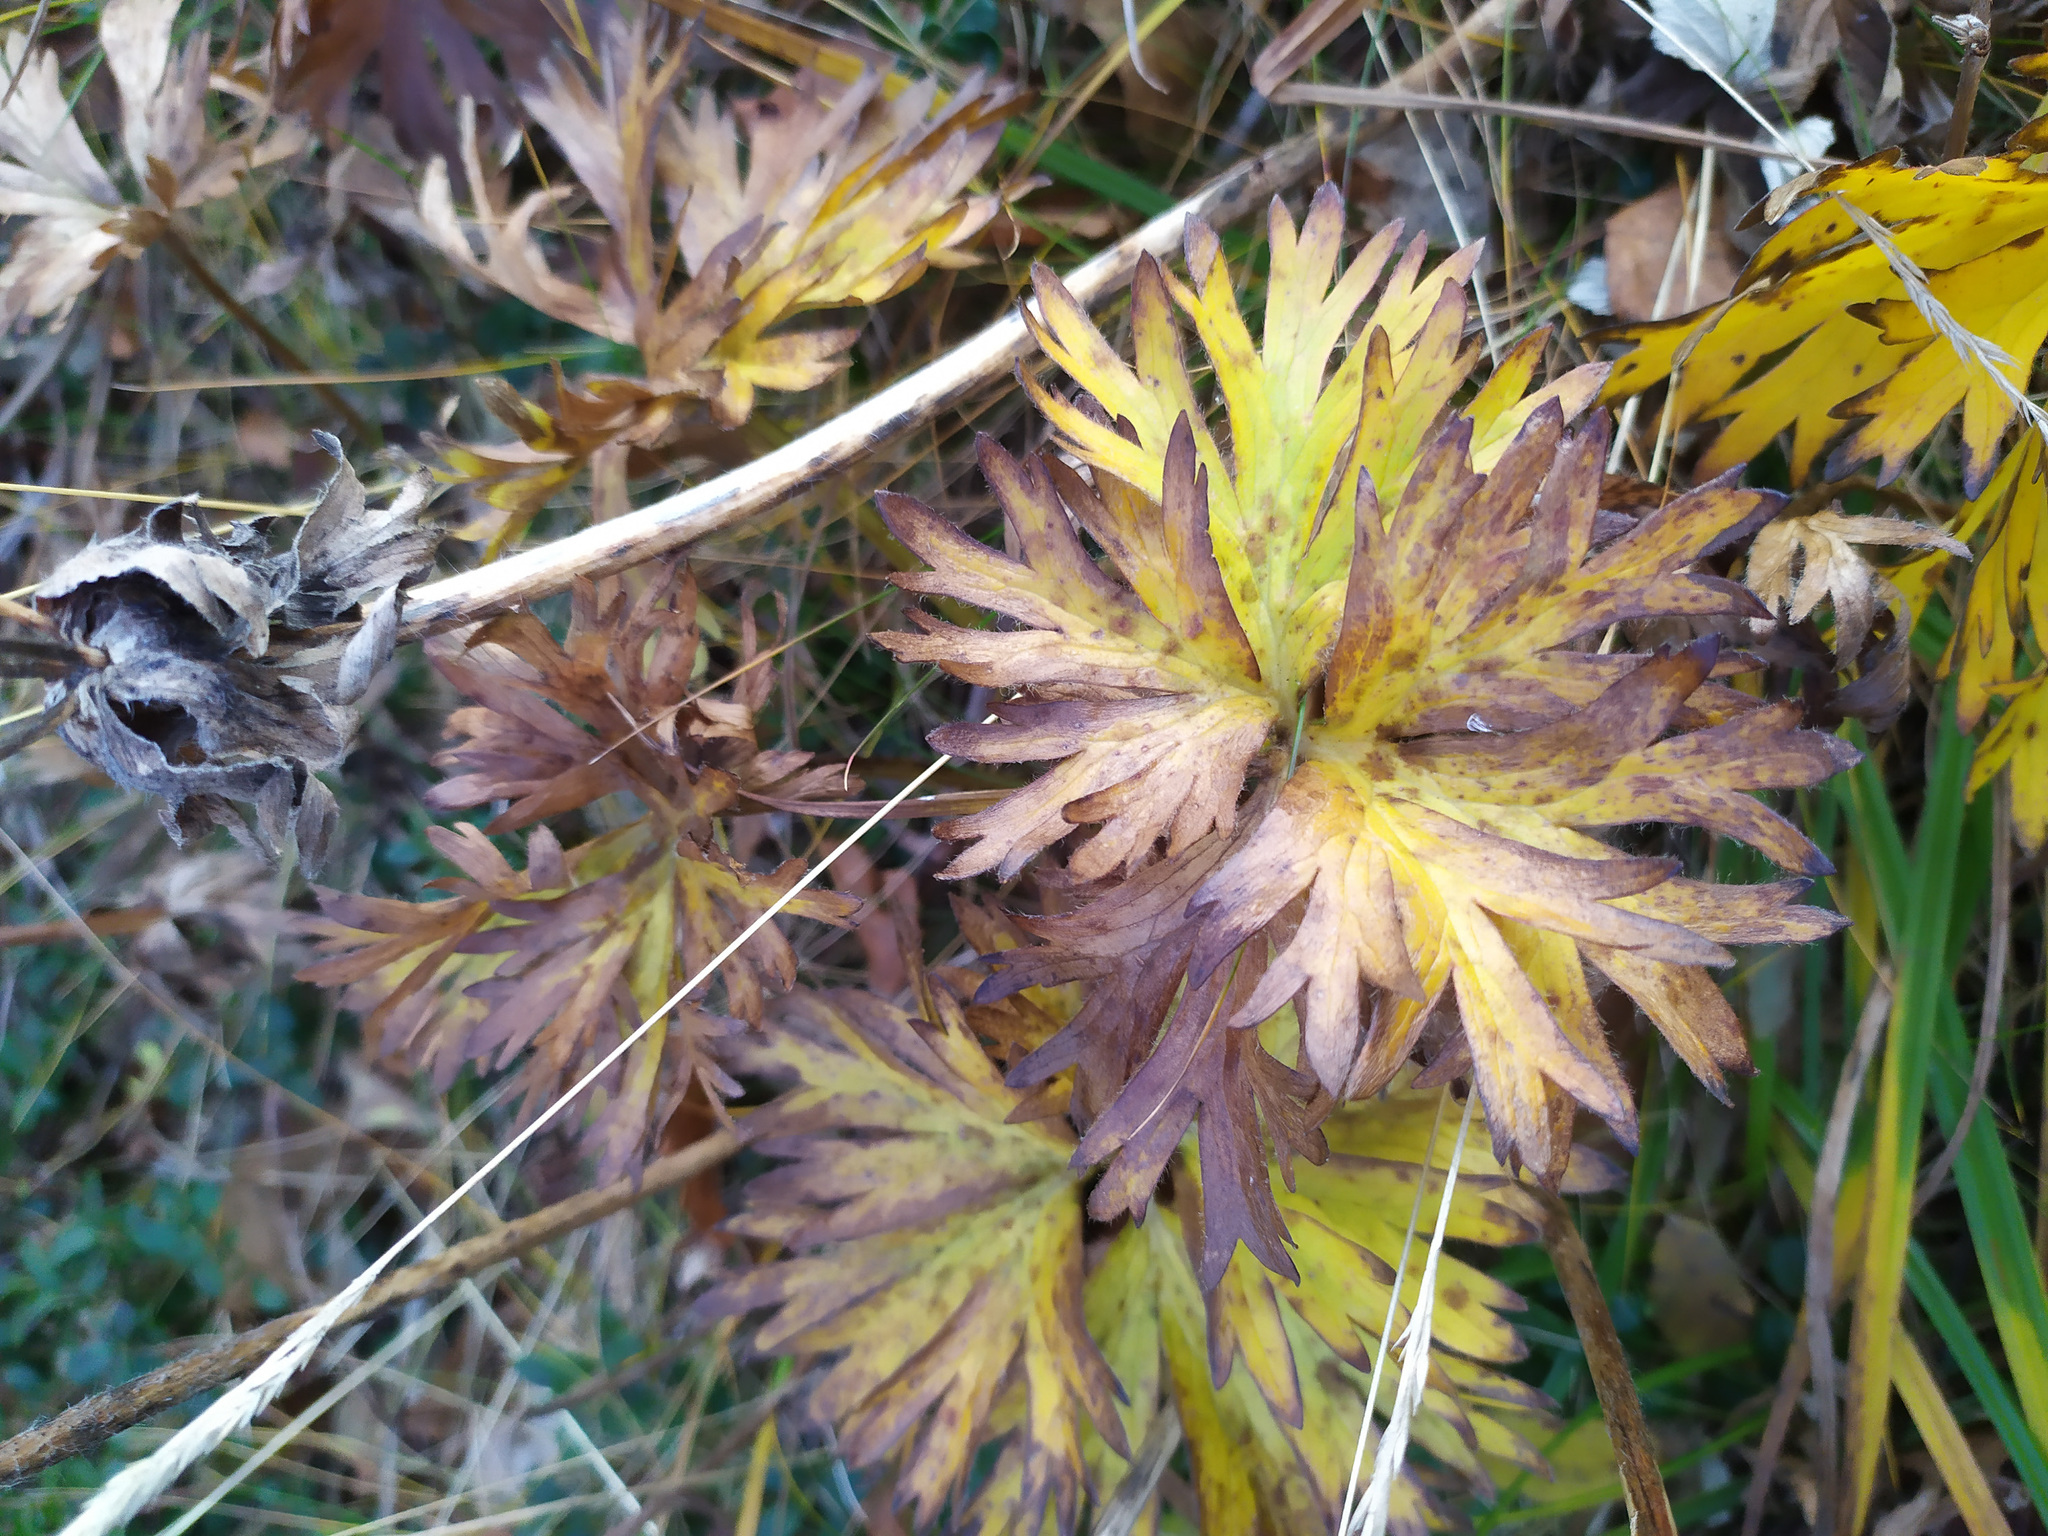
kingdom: Plantae
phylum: Tracheophyta
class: Magnoliopsida
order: Ranunculales
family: Ranunculaceae
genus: Anemonastrum
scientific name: Anemonastrum biarmiense
